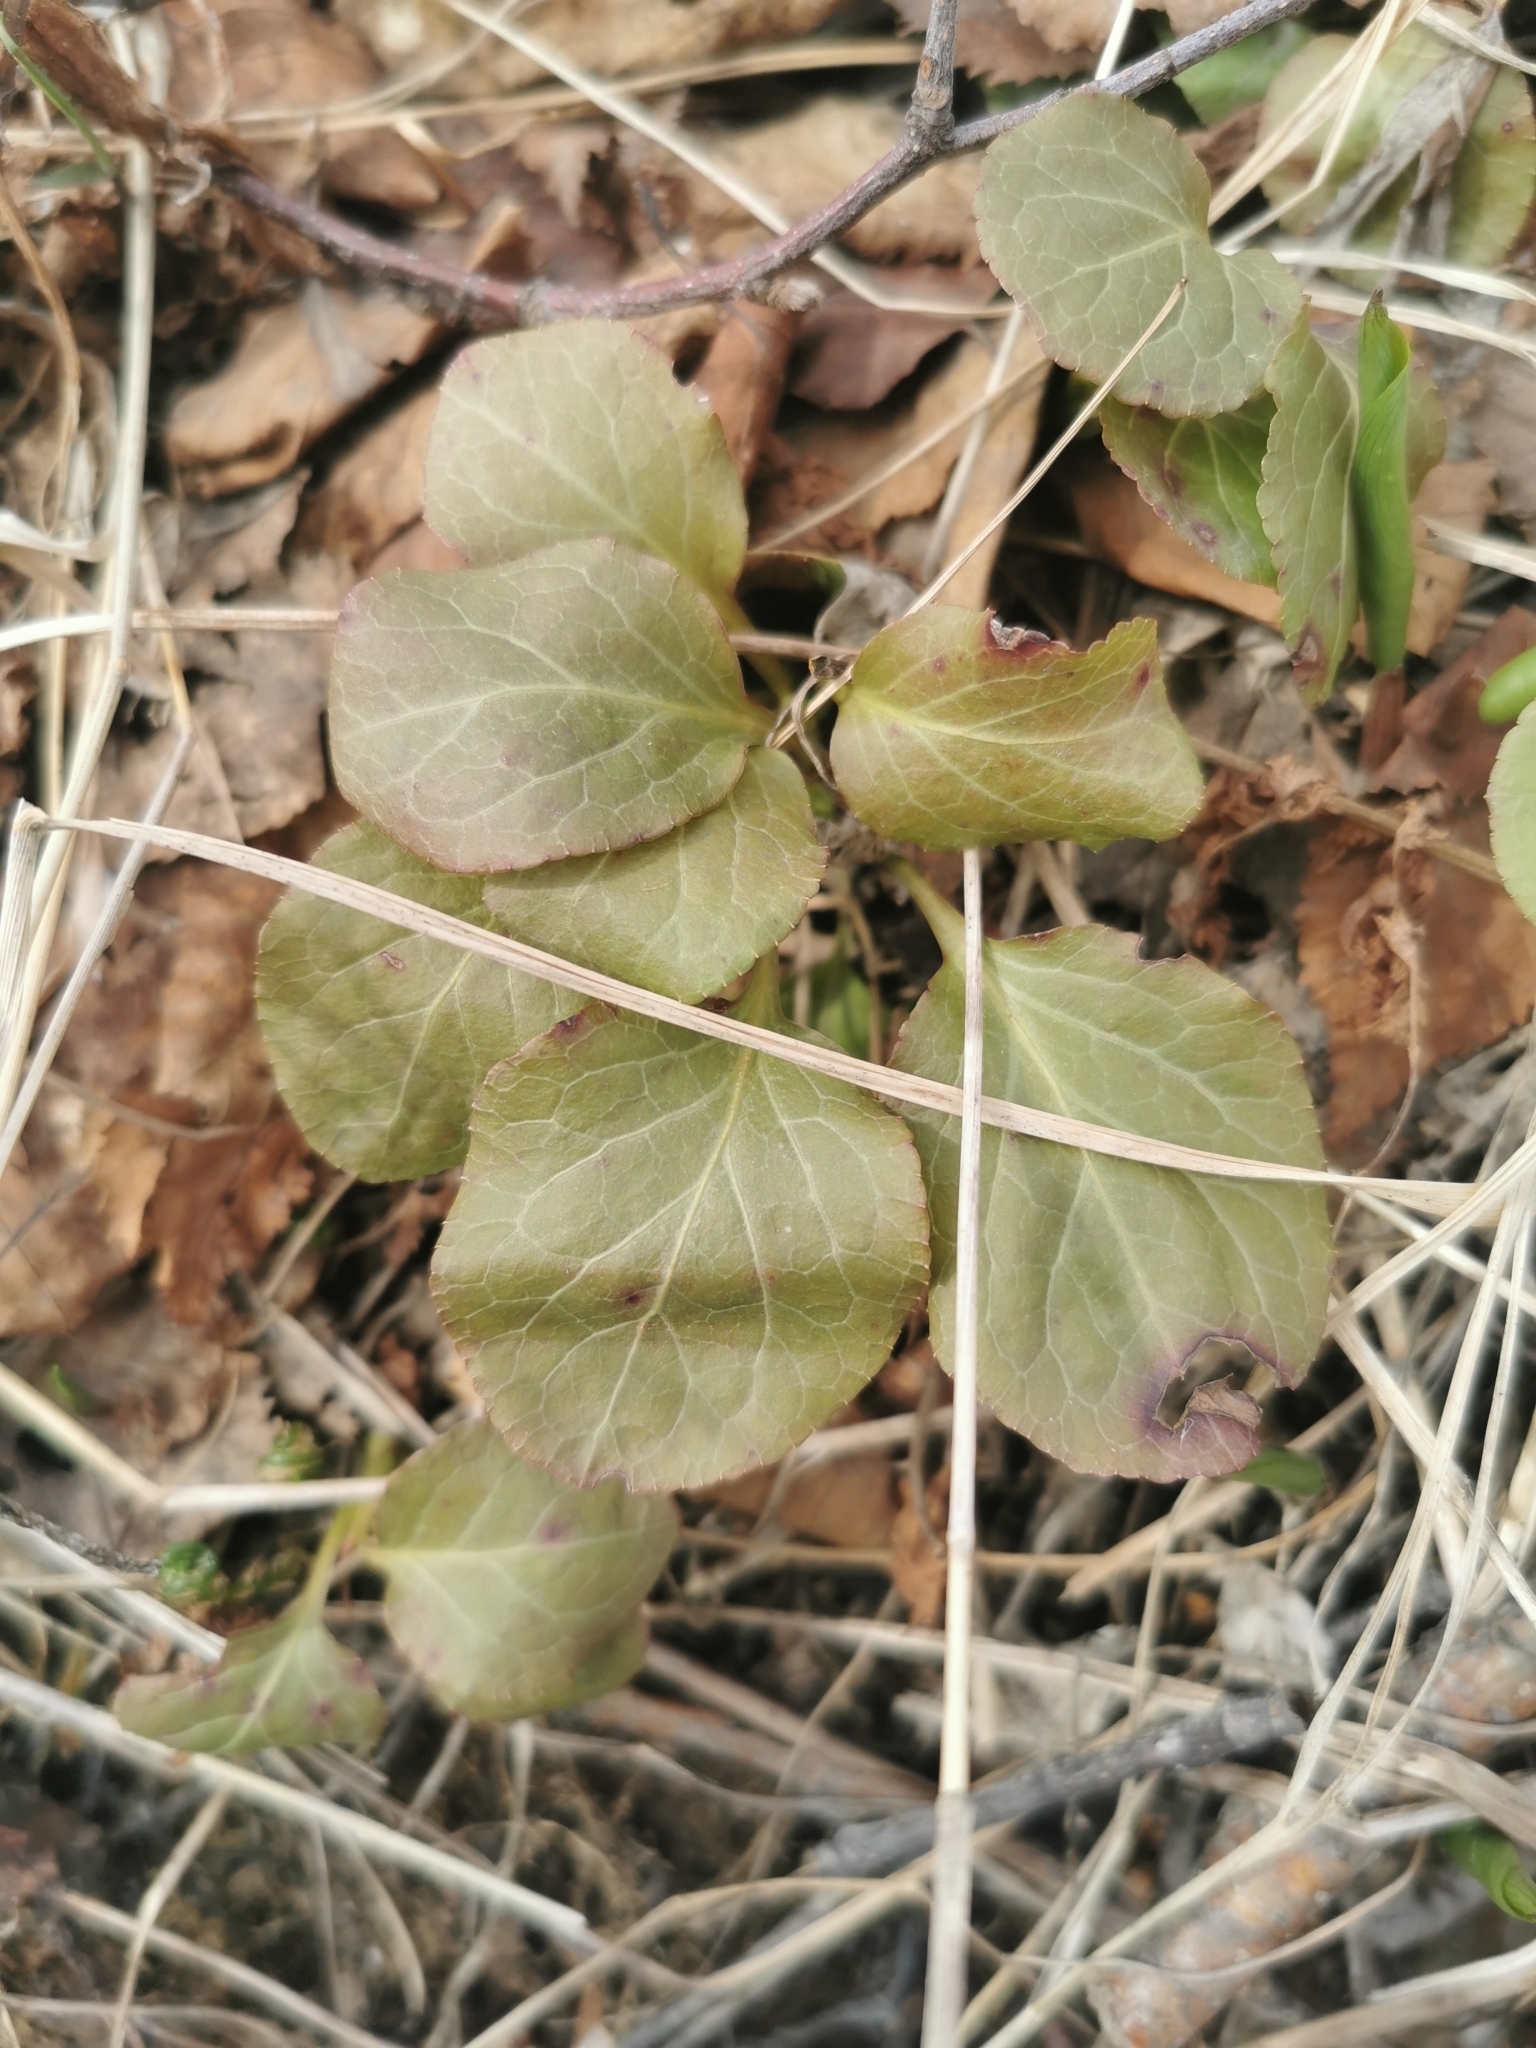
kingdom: Plantae
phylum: Tracheophyta
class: Magnoliopsida
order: Ericales
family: Ericaceae
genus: Pyrola
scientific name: Pyrola minor
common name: Common wintergreen
